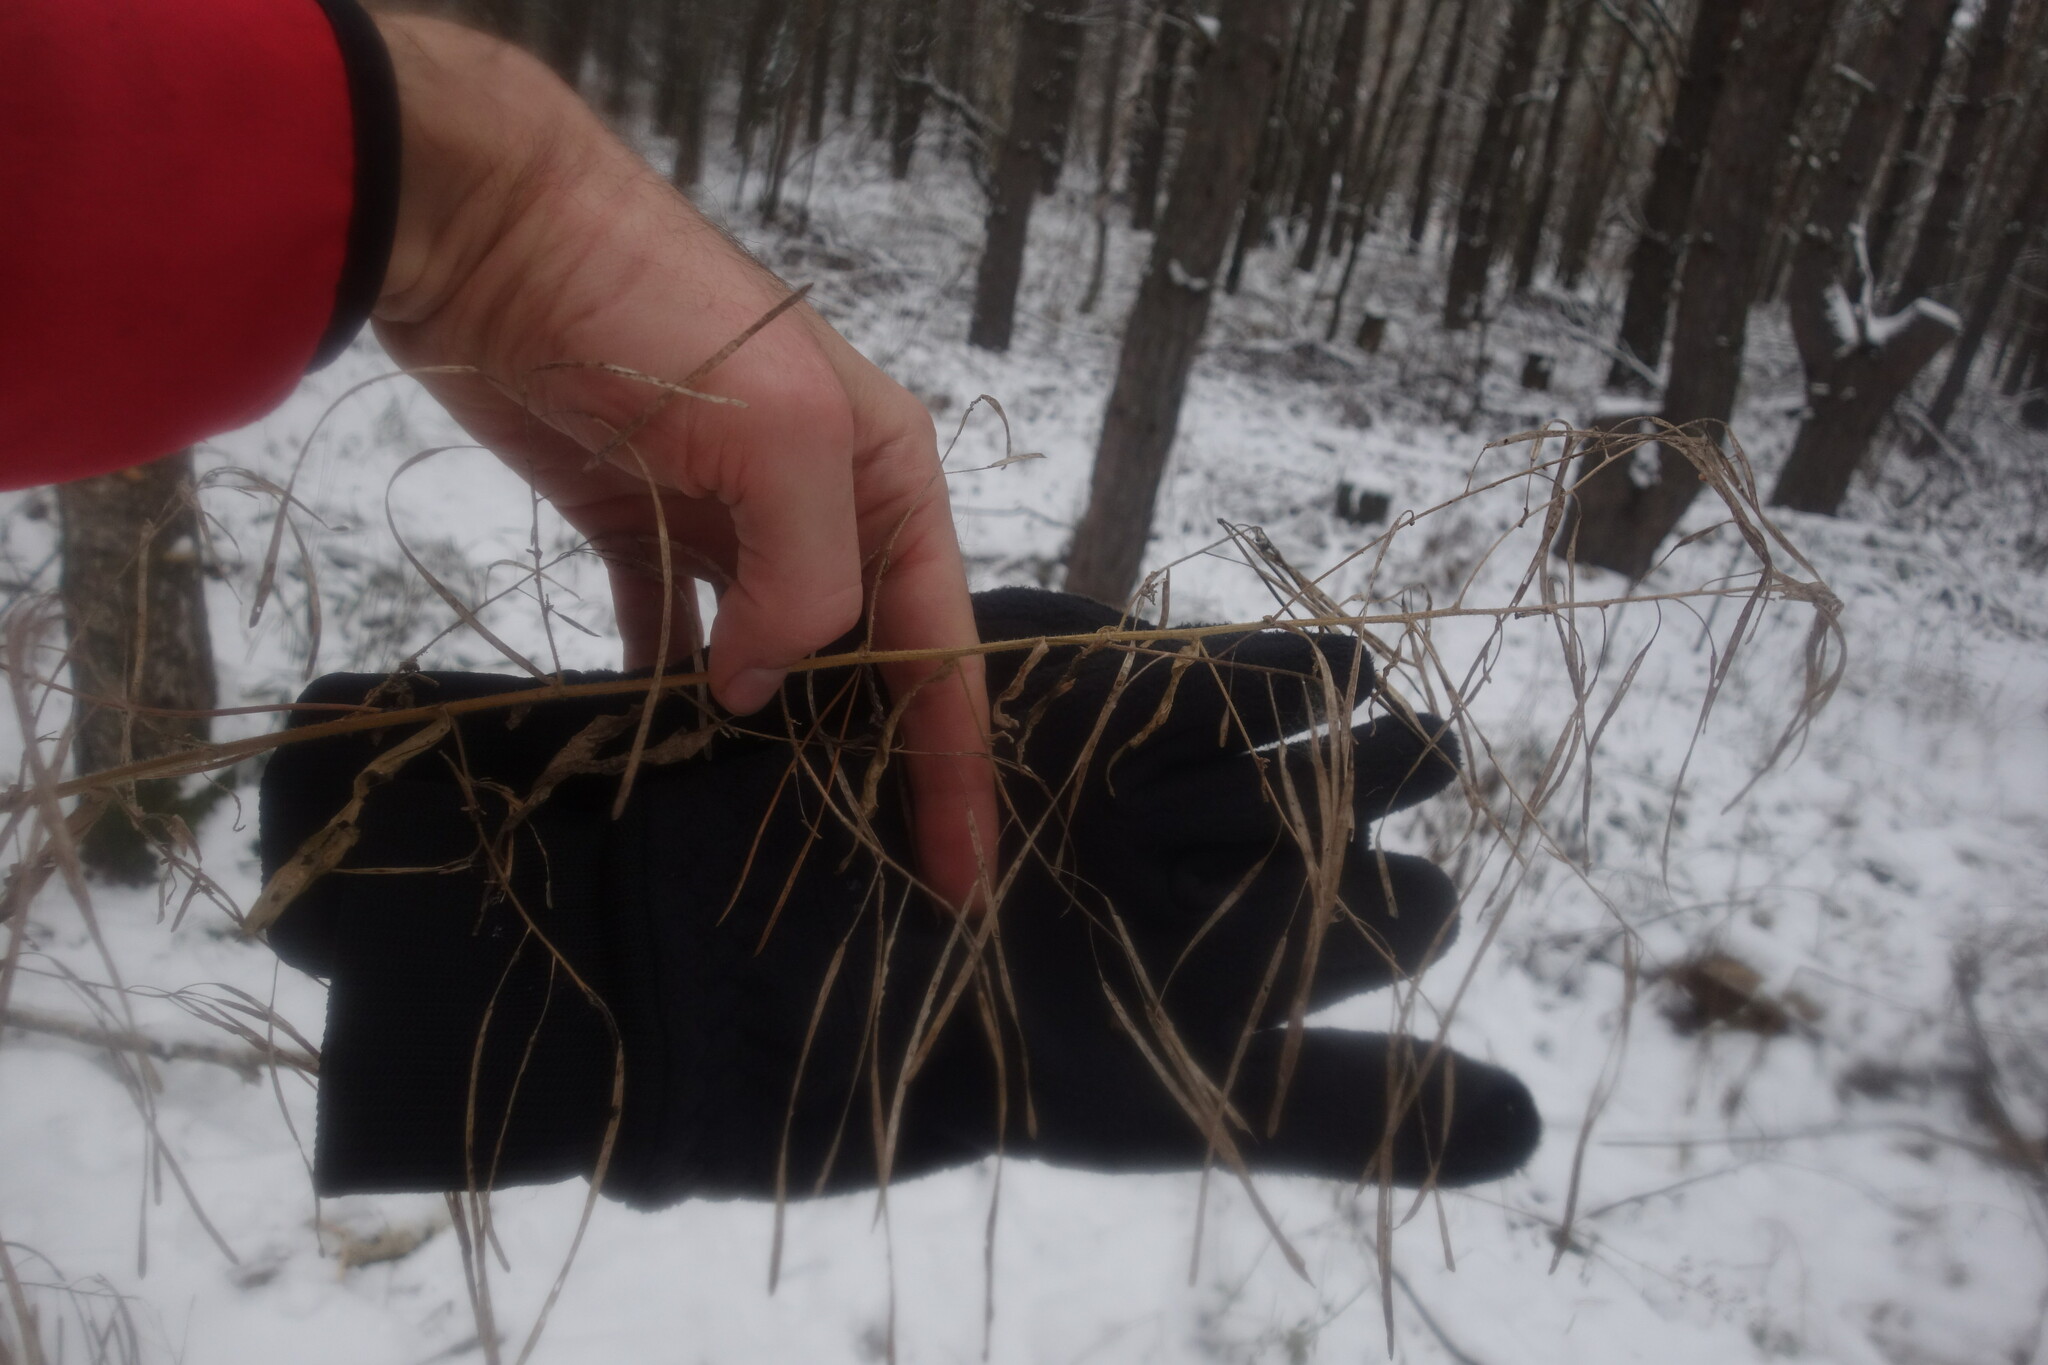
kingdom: Plantae
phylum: Tracheophyta
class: Magnoliopsida
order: Brassicales
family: Brassicaceae
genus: Catolobus
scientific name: Catolobus pendulus
